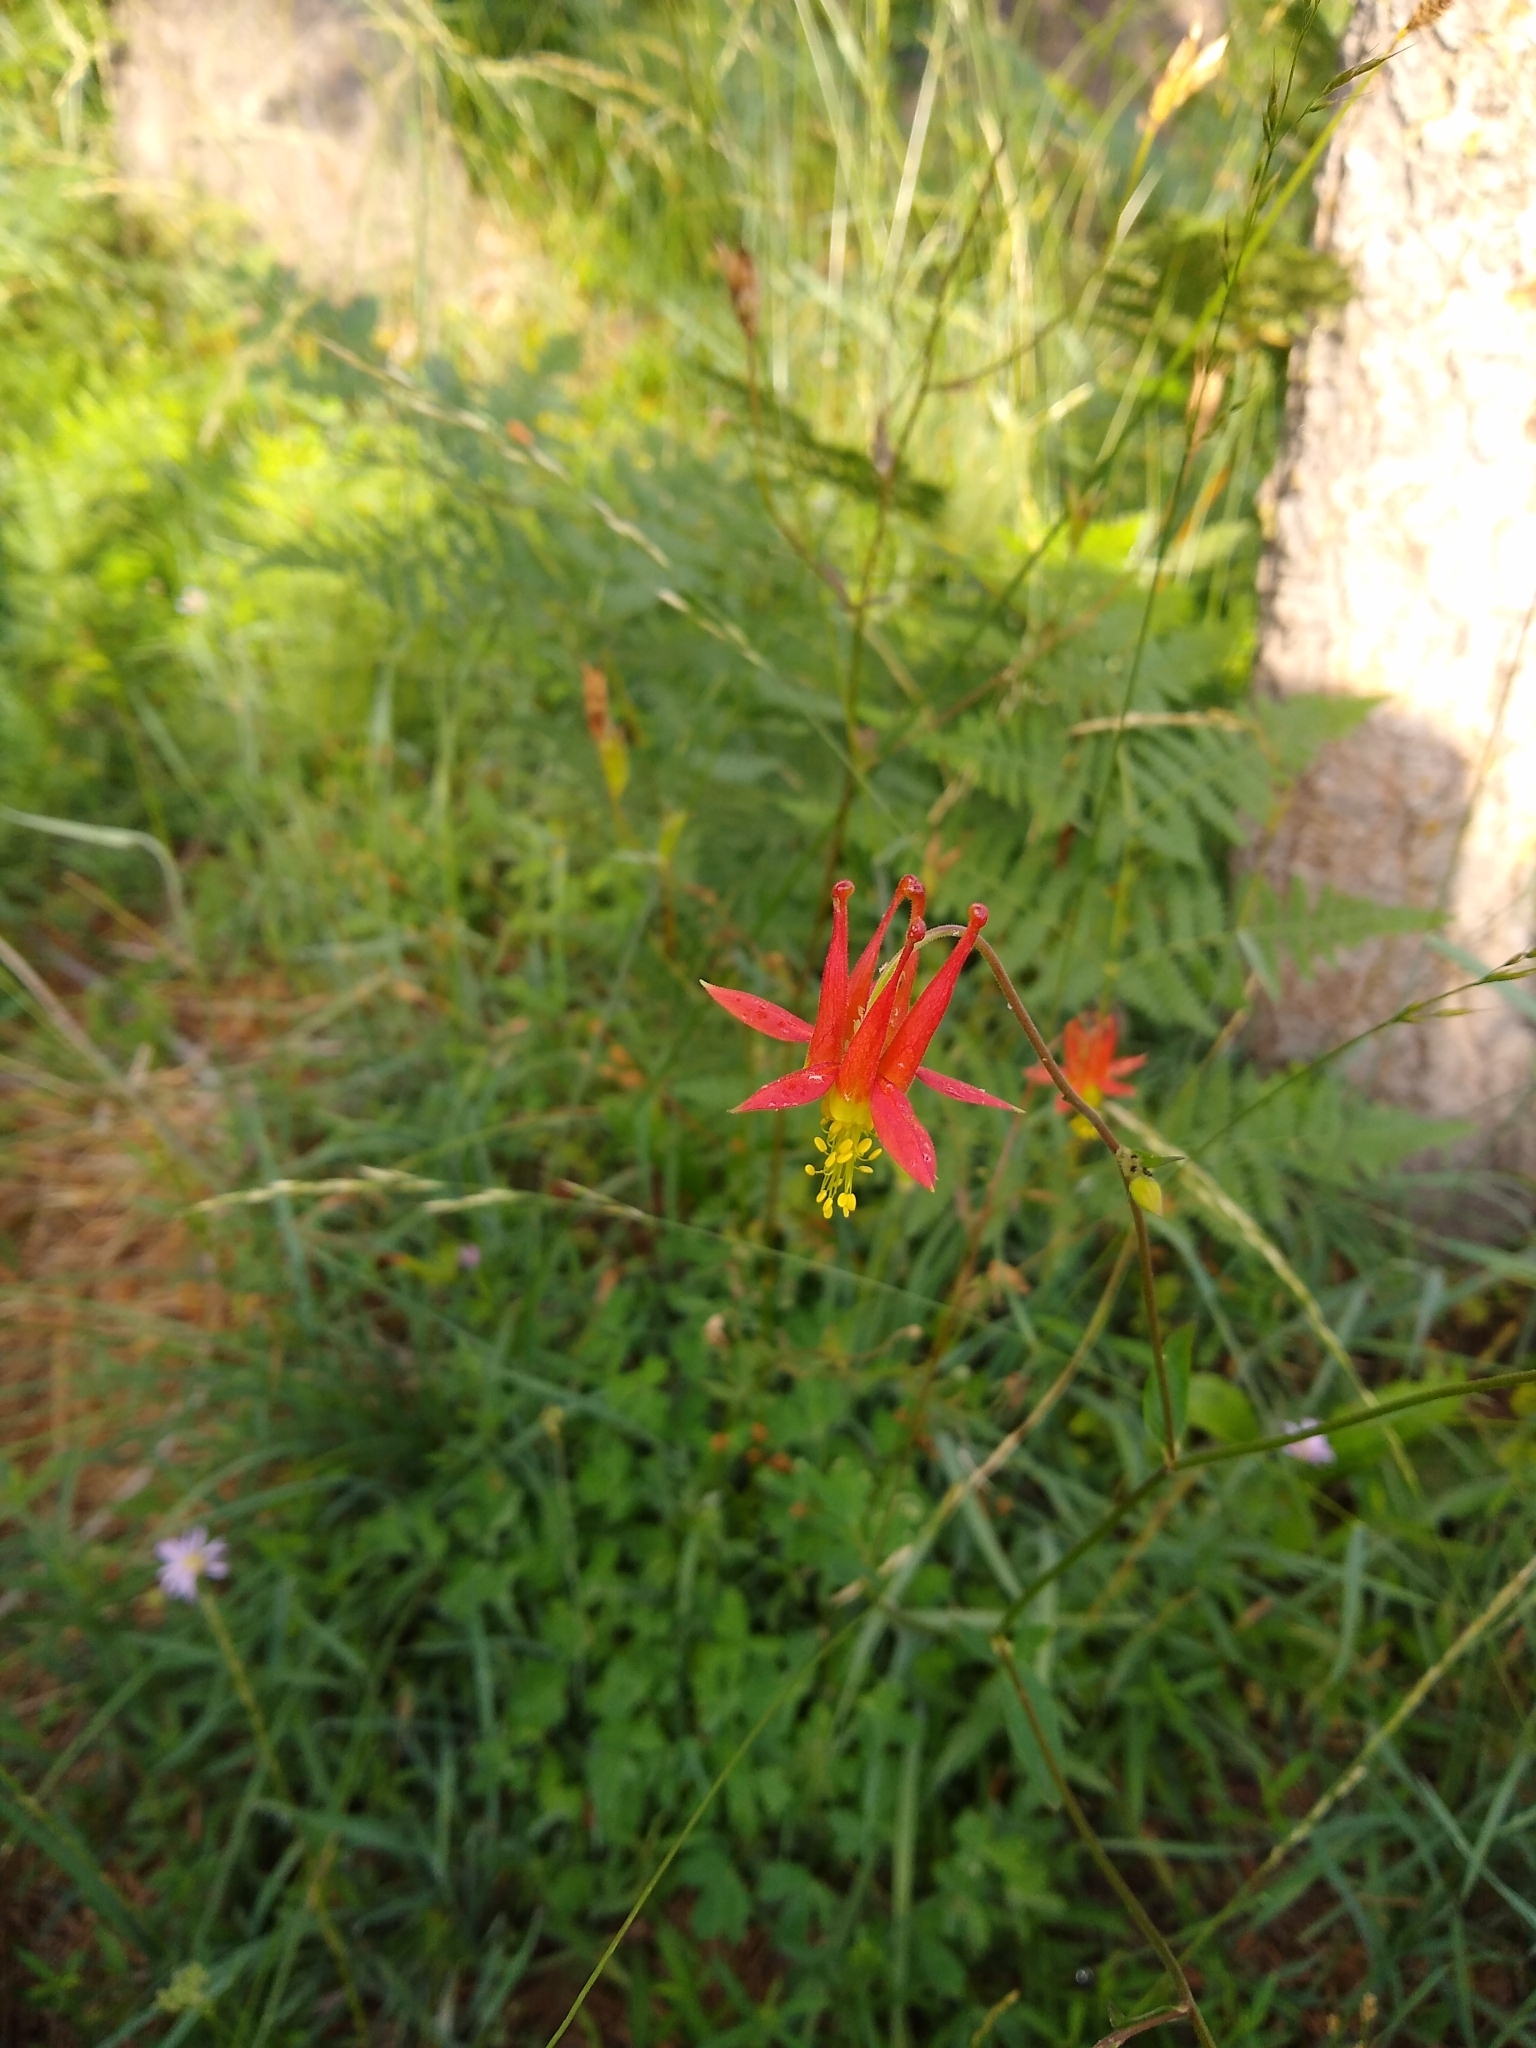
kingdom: Plantae
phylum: Tracheophyta
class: Magnoliopsida
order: Ranunculales
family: Ranunculaceae
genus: Aquilegia
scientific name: Aquilegia formosa
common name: Sitka columbine
